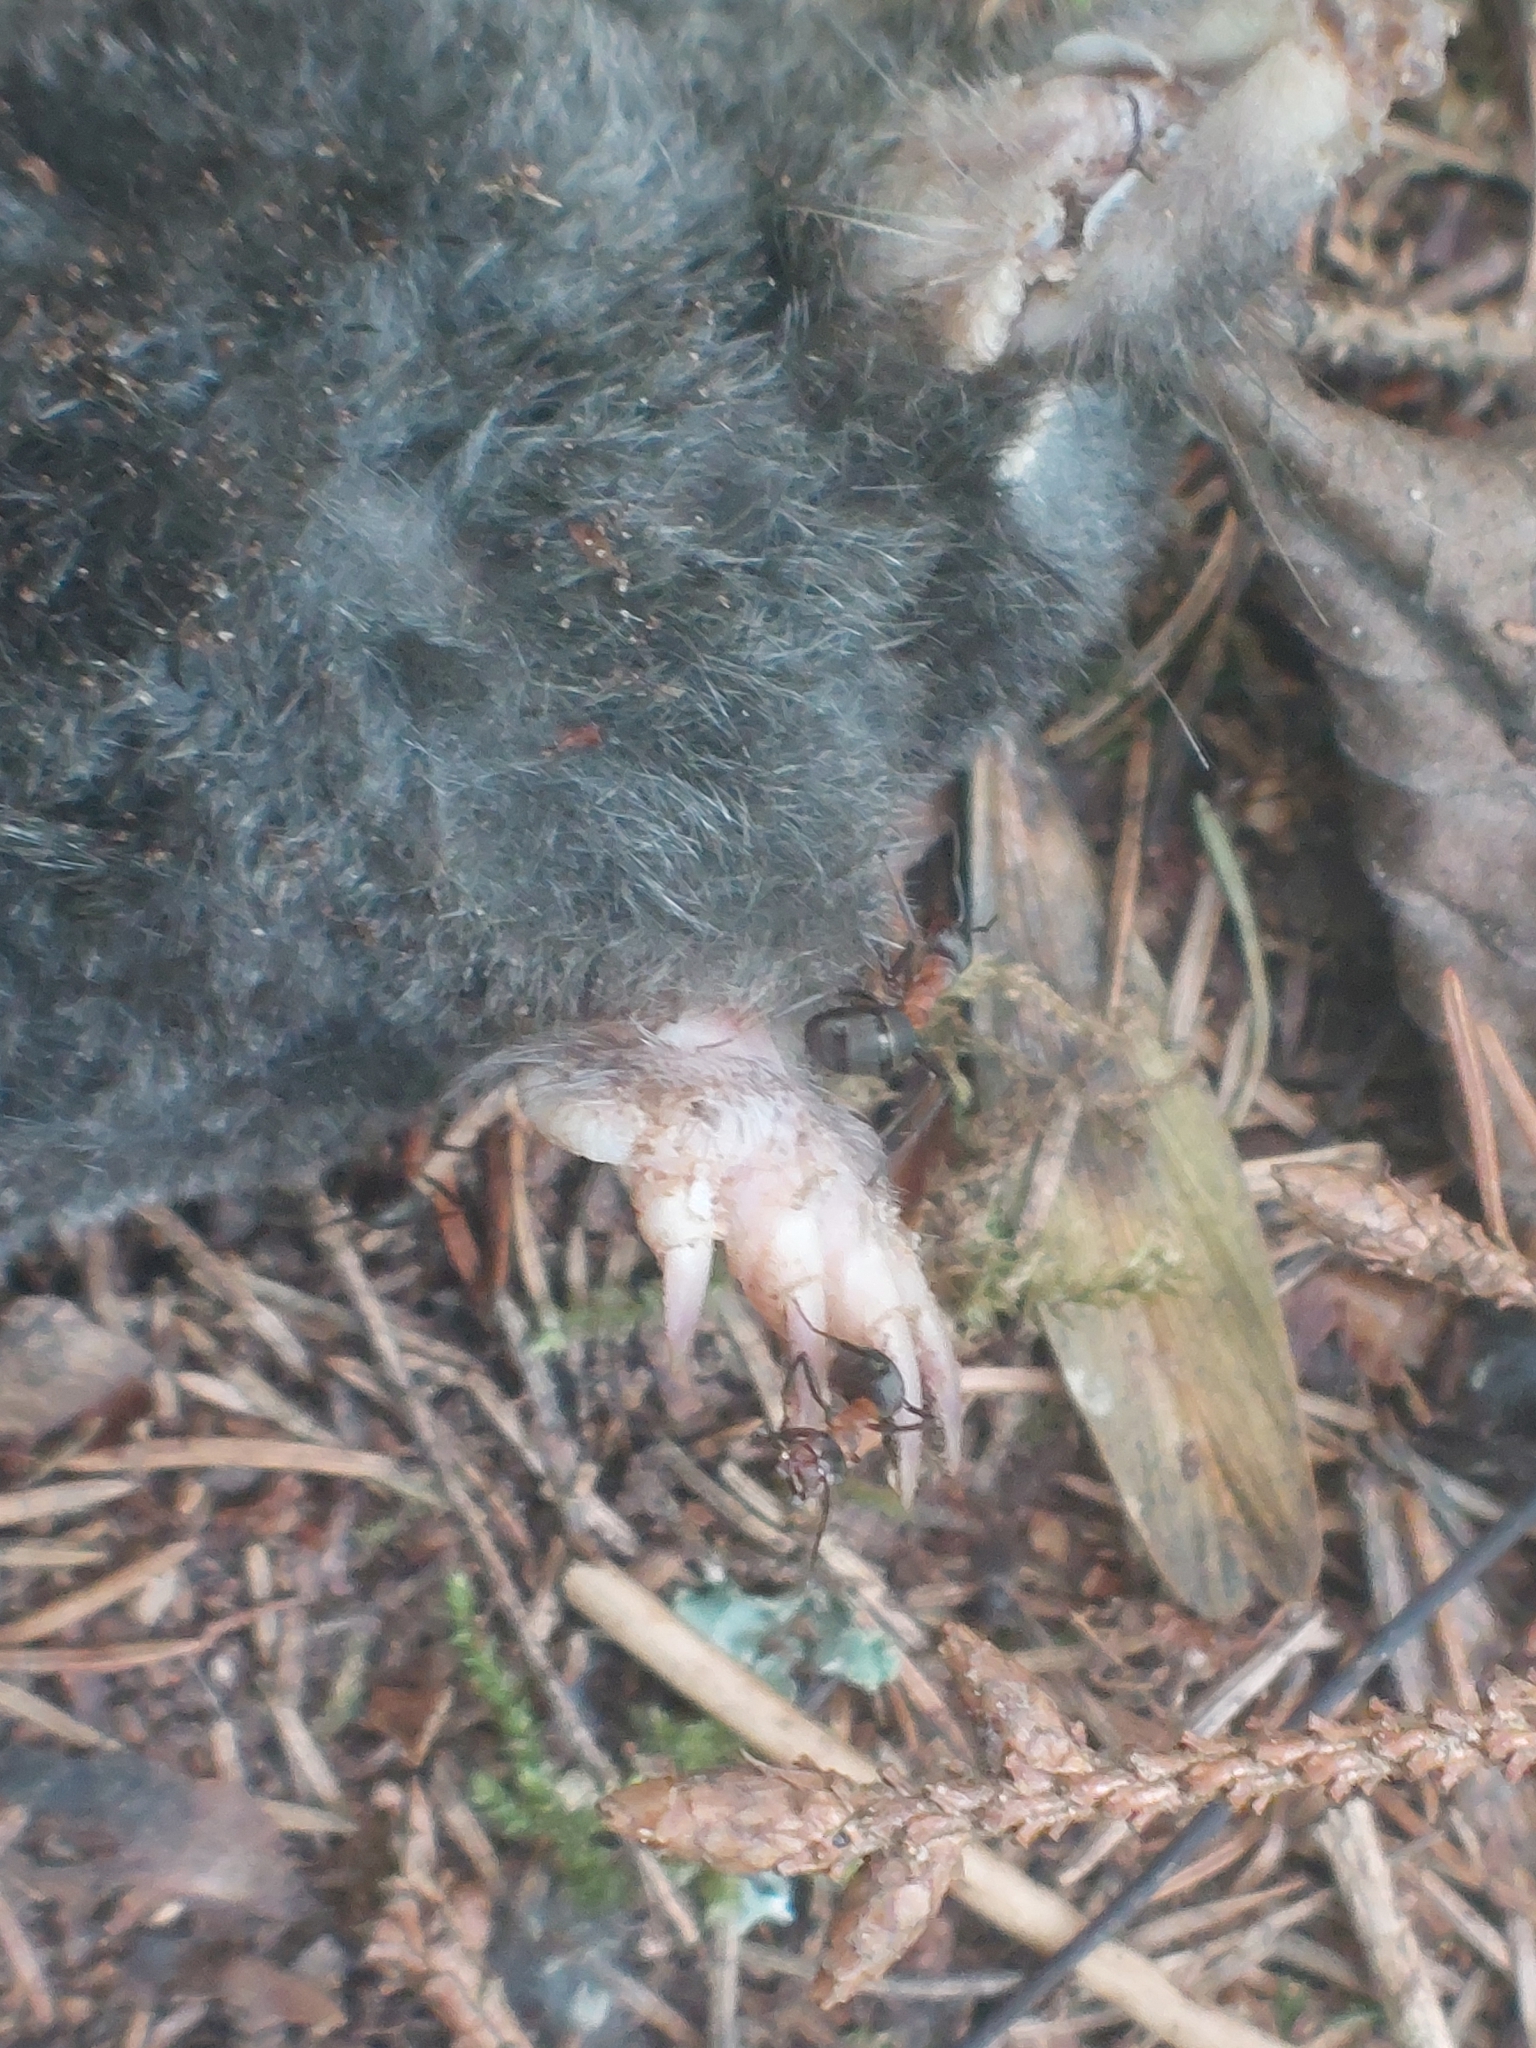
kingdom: Animalia
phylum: Chordata
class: Mammalia
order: Soricomorpha
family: Talpidae
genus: Talpa
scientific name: Talpa europaea
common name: European mole
